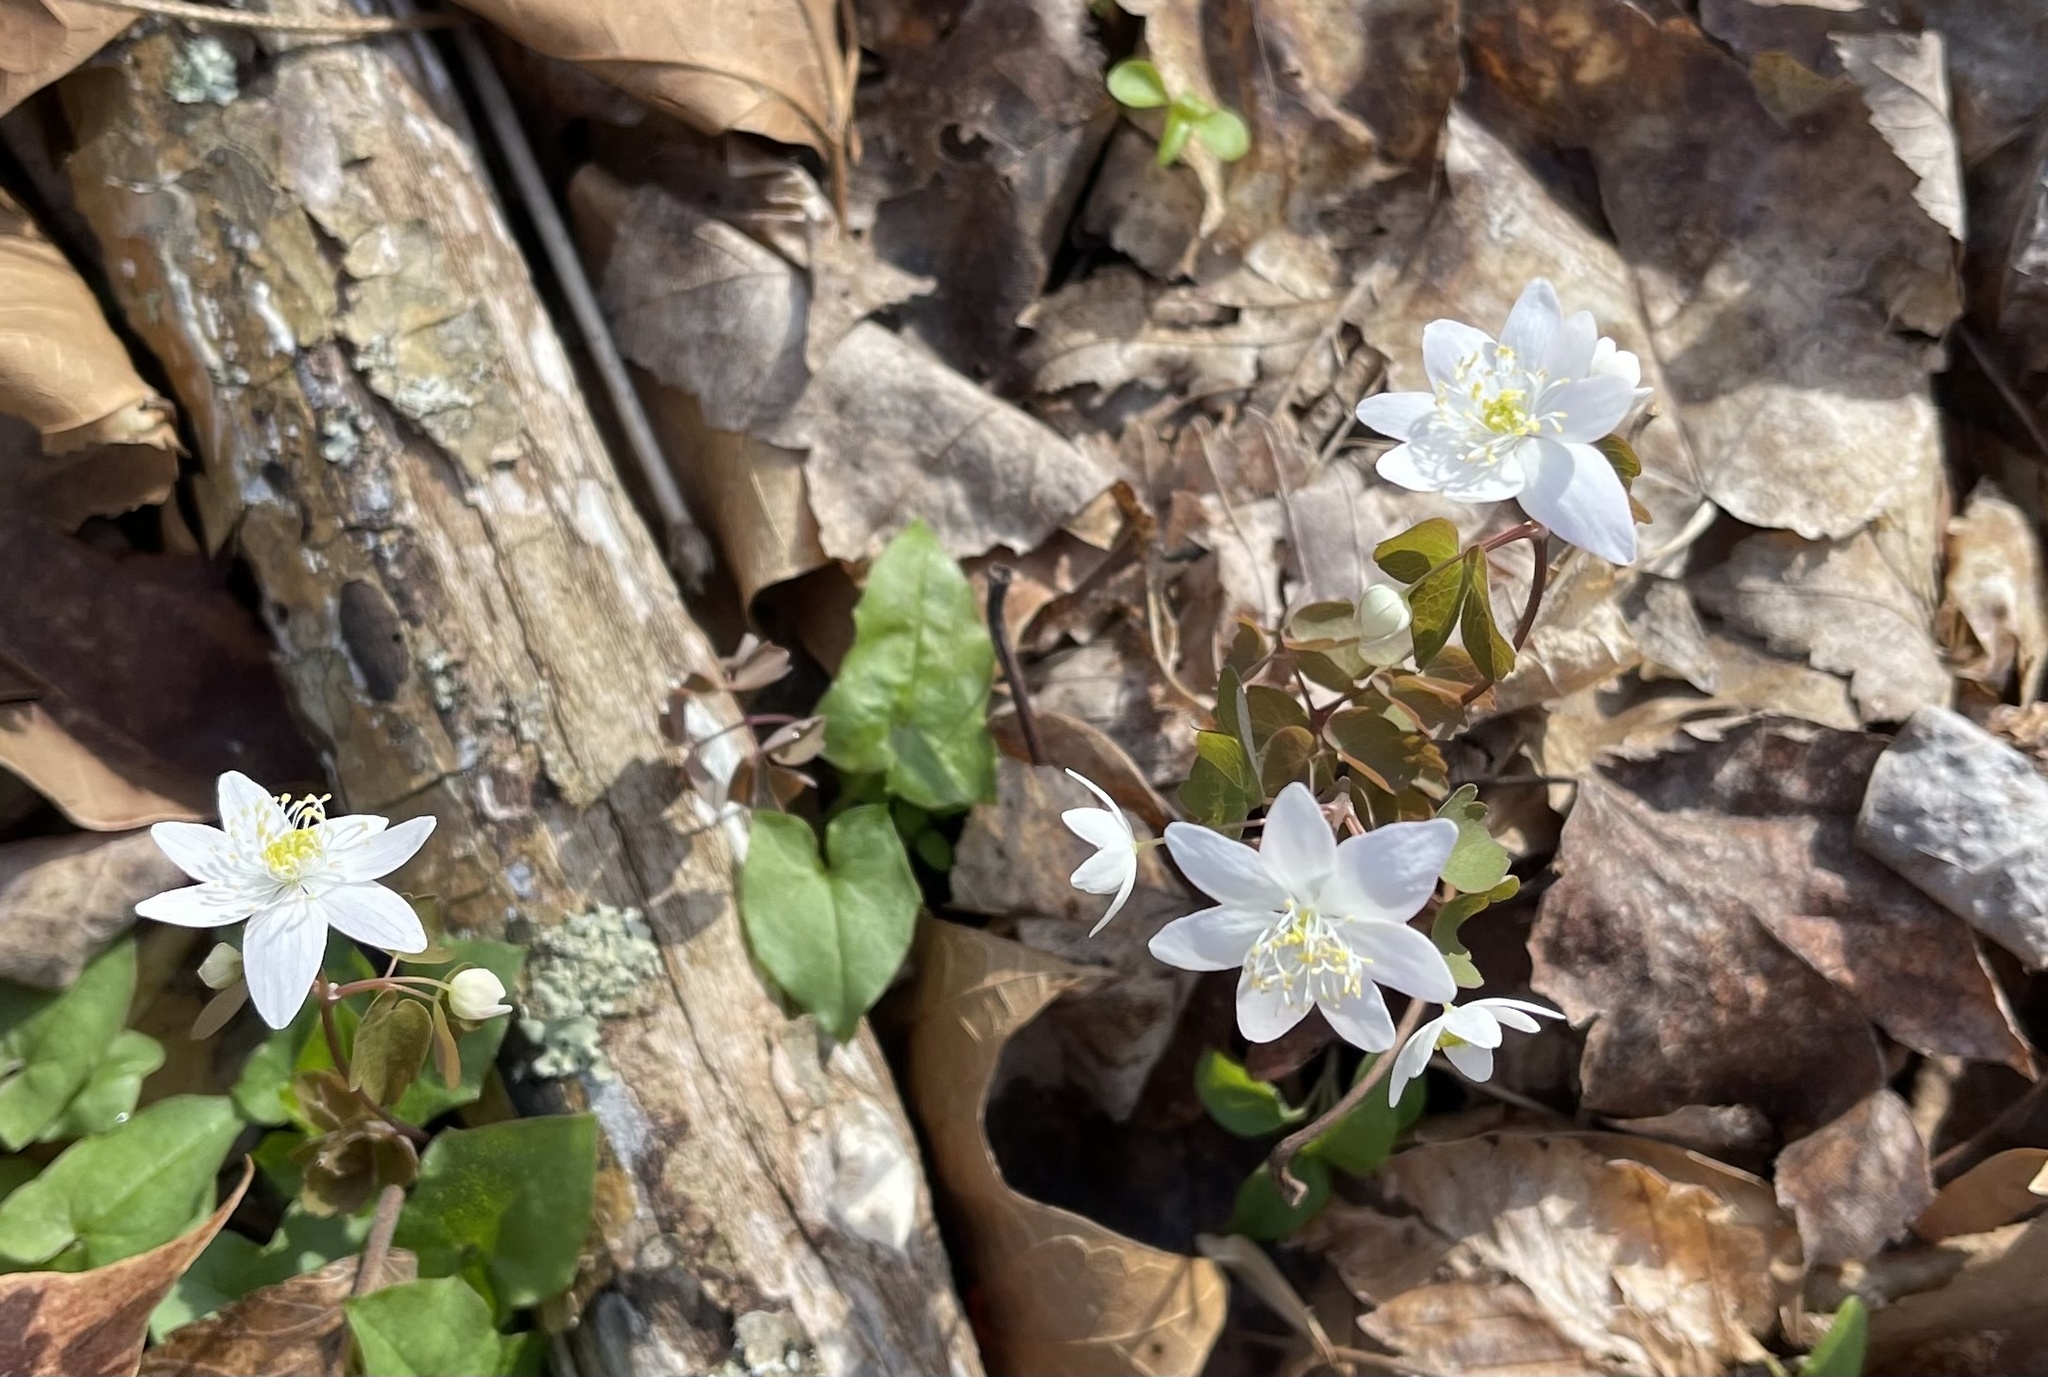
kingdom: Plantae
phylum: Tracheophyta
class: Magnoliopsida
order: Ranunculales
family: Ranunculaceae
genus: Thalictrum
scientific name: Thalictrum thalictroides
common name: Rue-anemone
